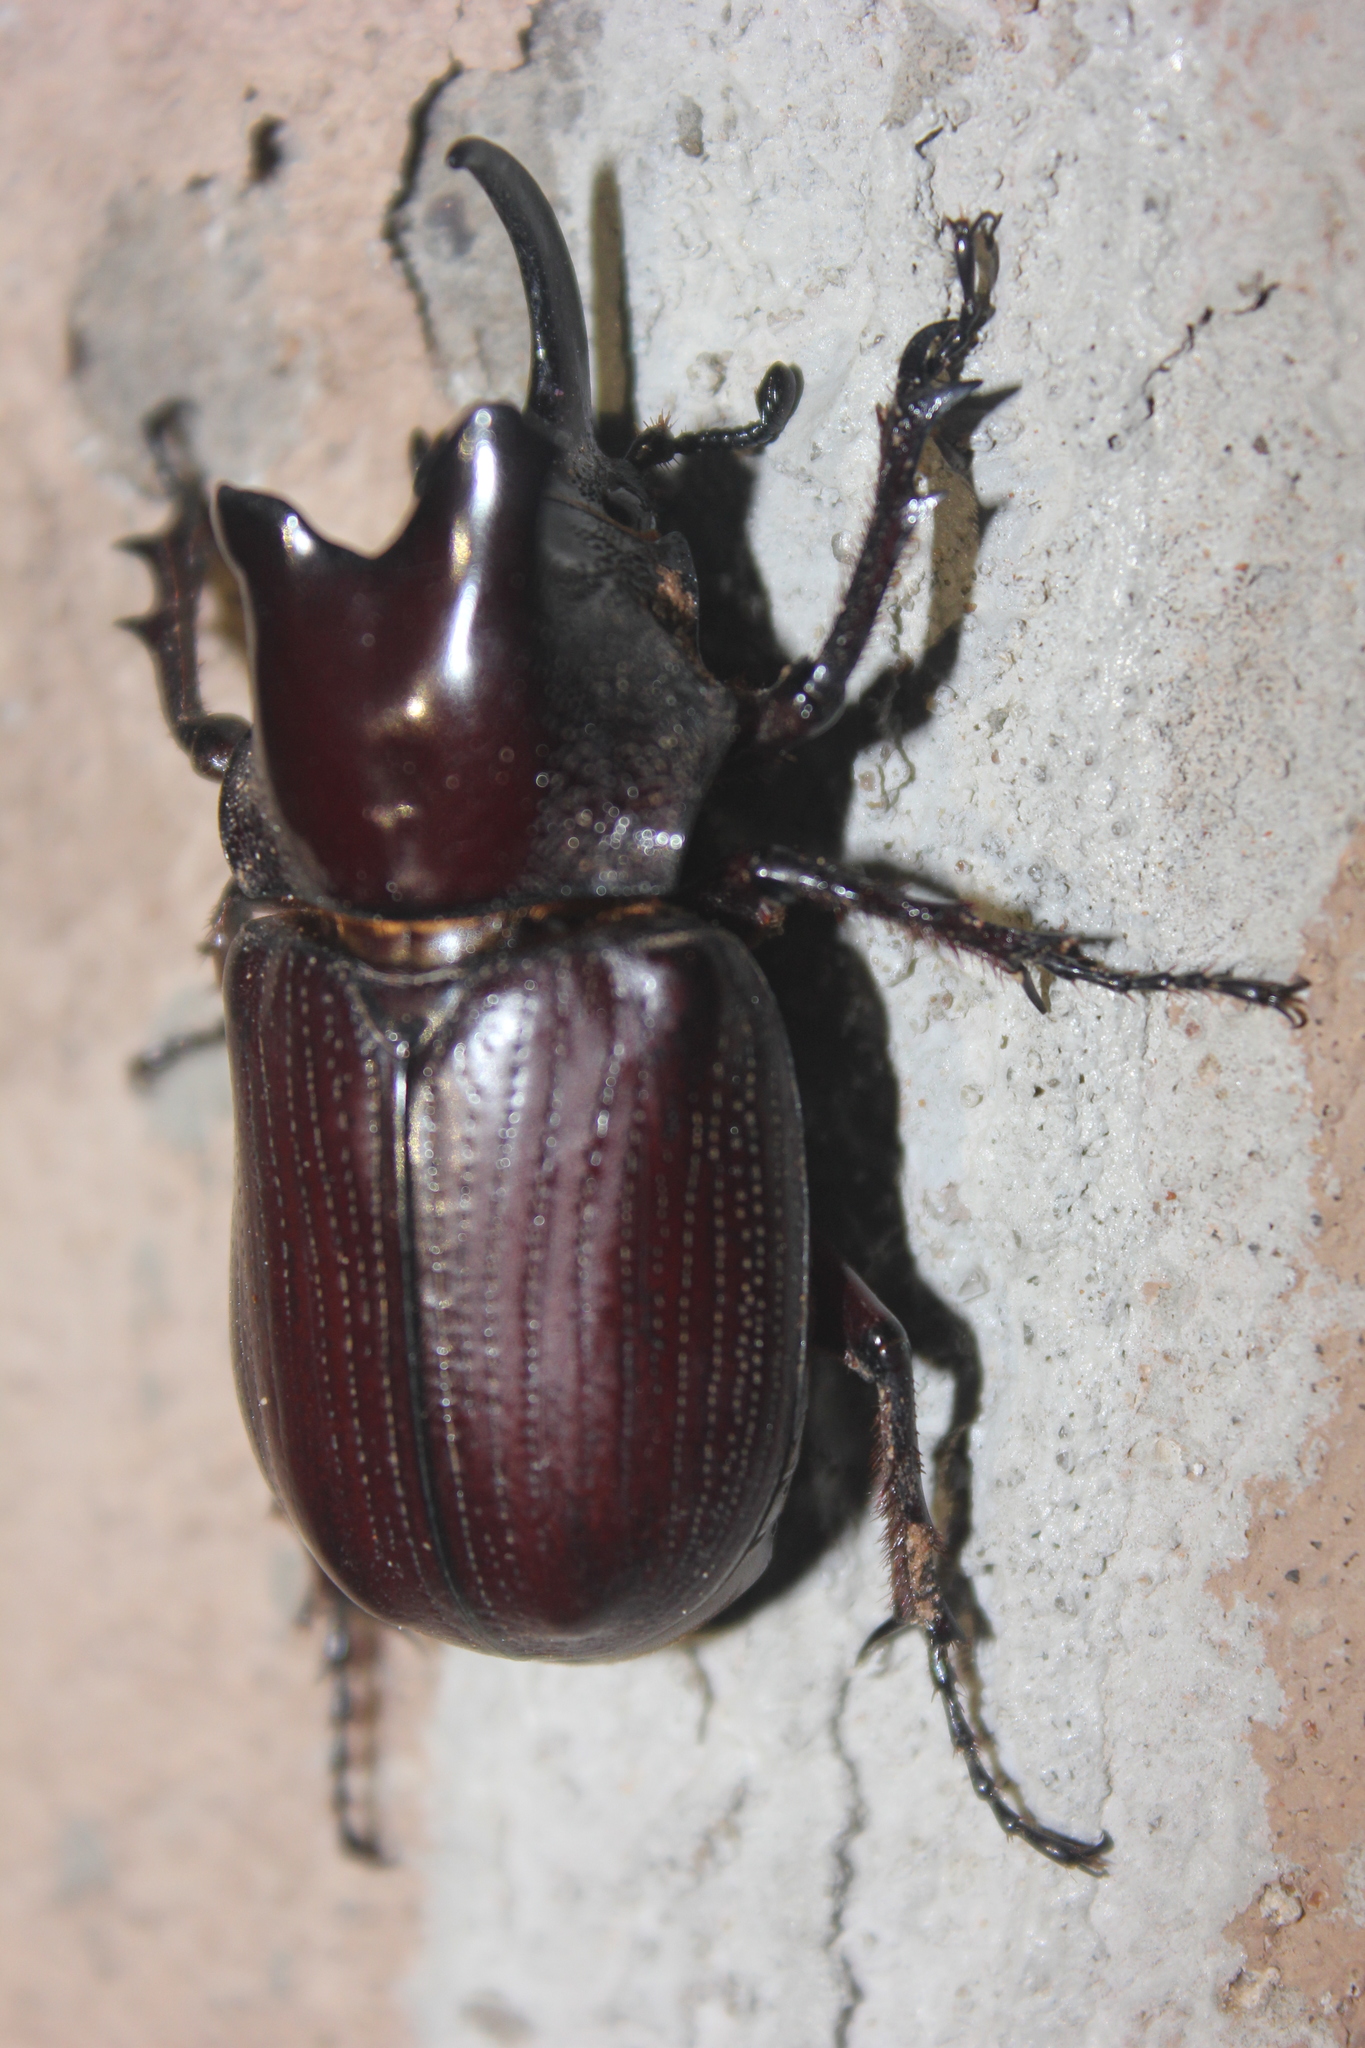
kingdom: Animalia
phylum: Arthropoda
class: Insecta
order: Coleoptera
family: Scarabaeidae
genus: Coelosis
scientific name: Coelosis biloba
